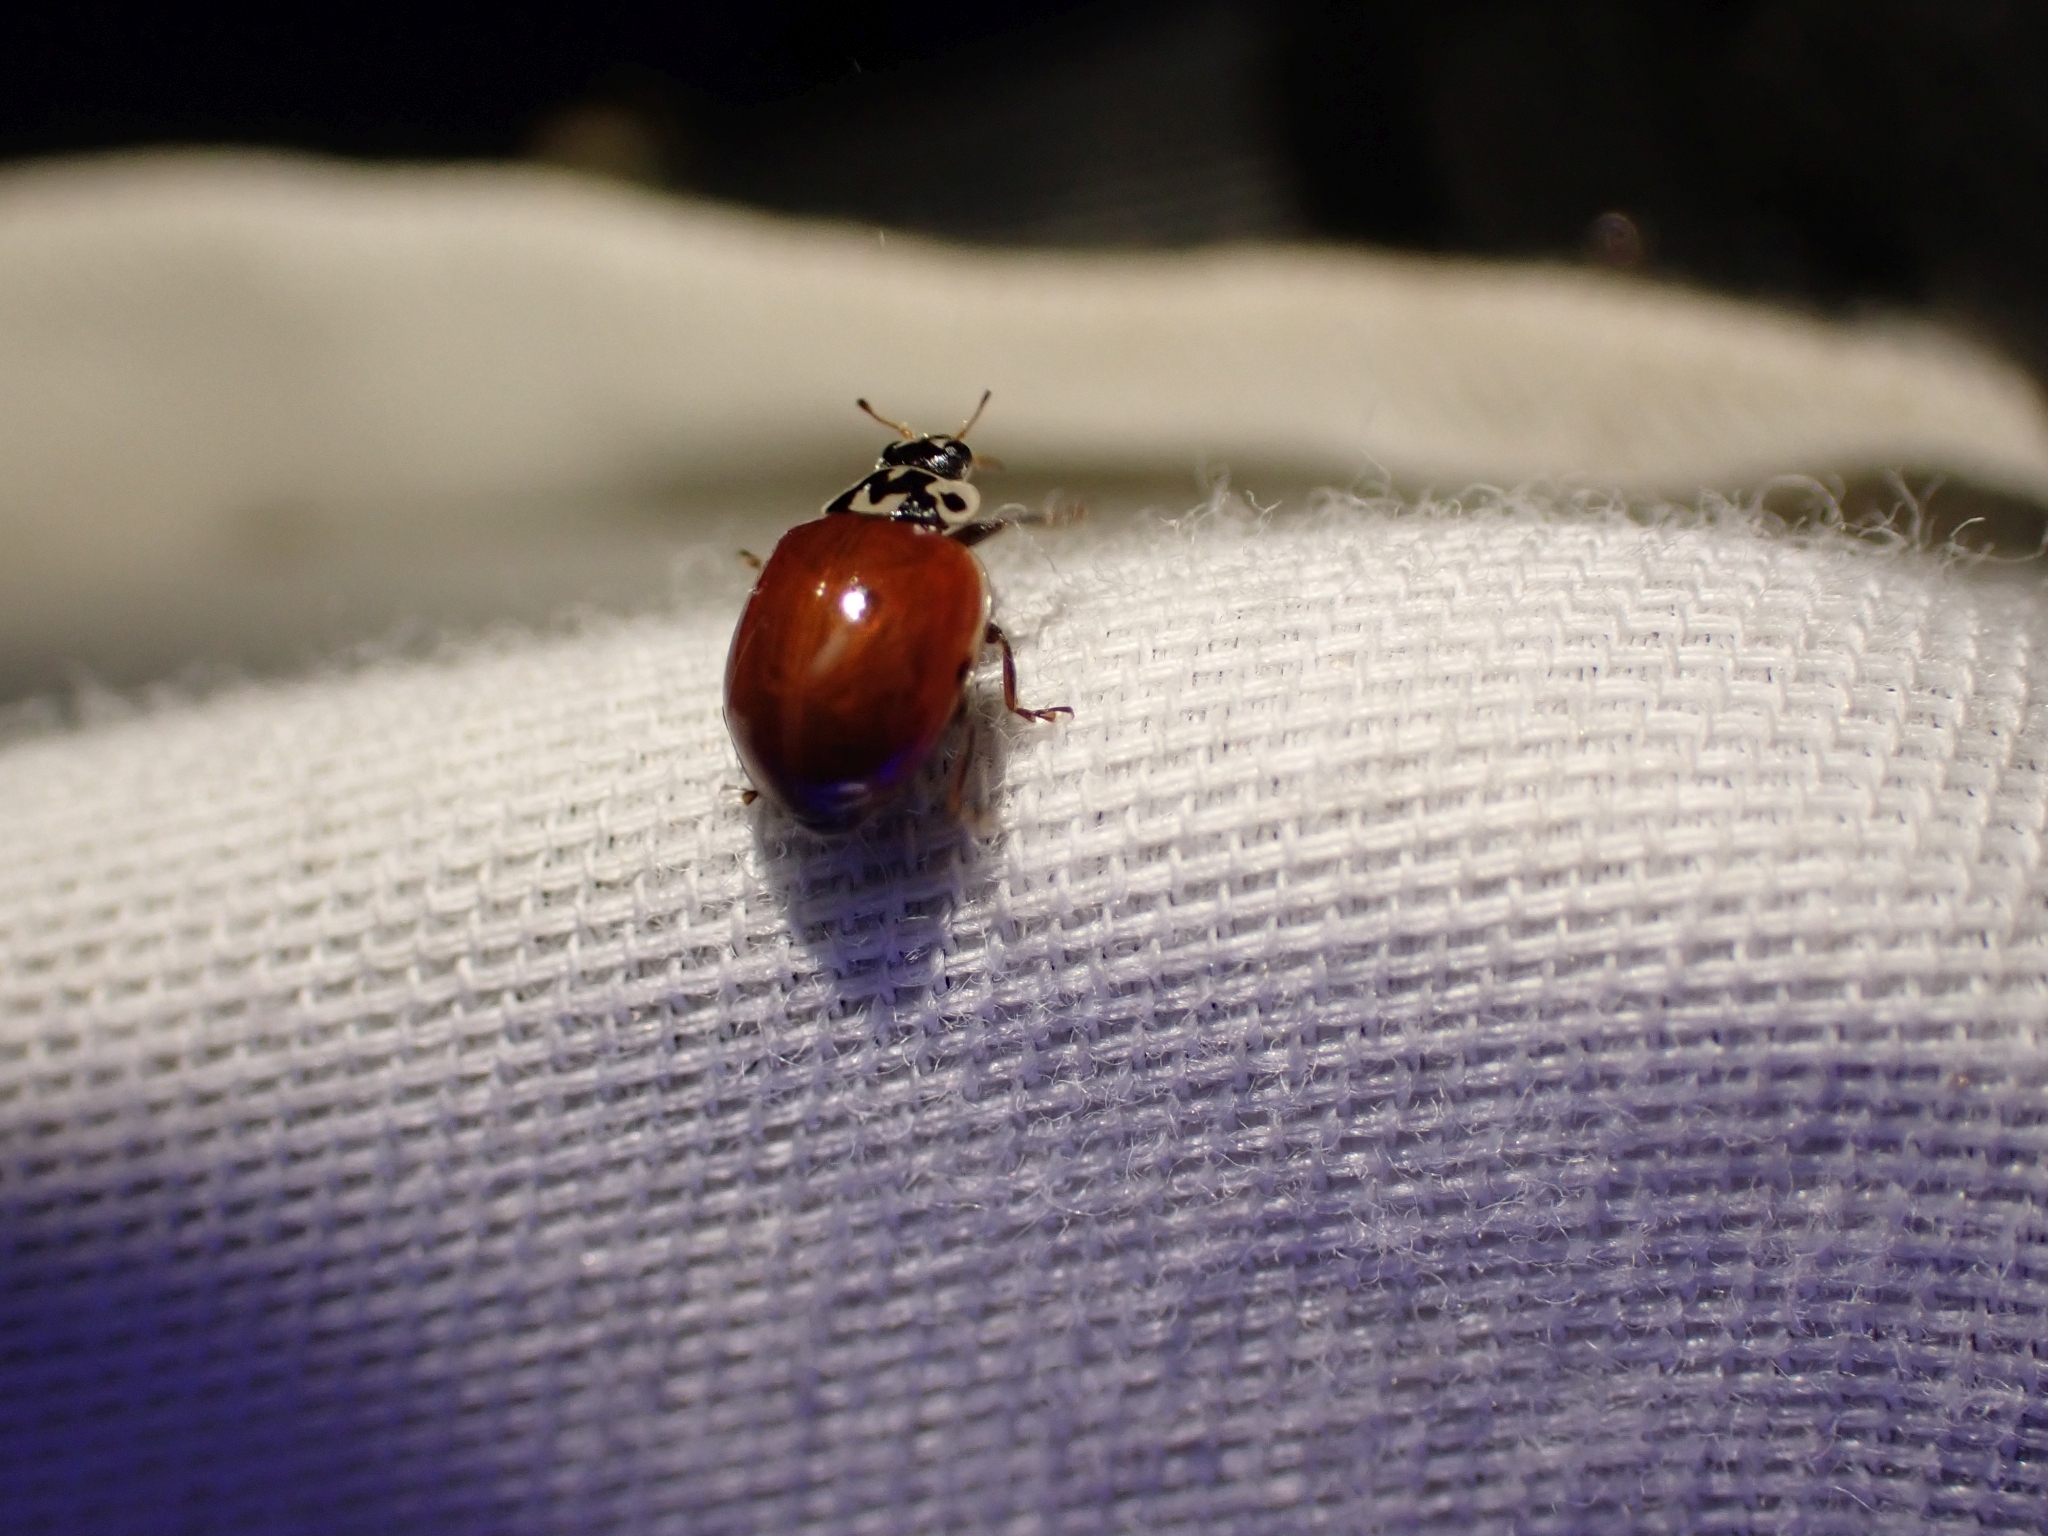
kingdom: Animalia
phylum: Arthropoda
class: Insecta
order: Coleoptera
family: Coccinellidae
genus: Adalia
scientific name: Adalia bipunctata
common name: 2-spot ladybird
